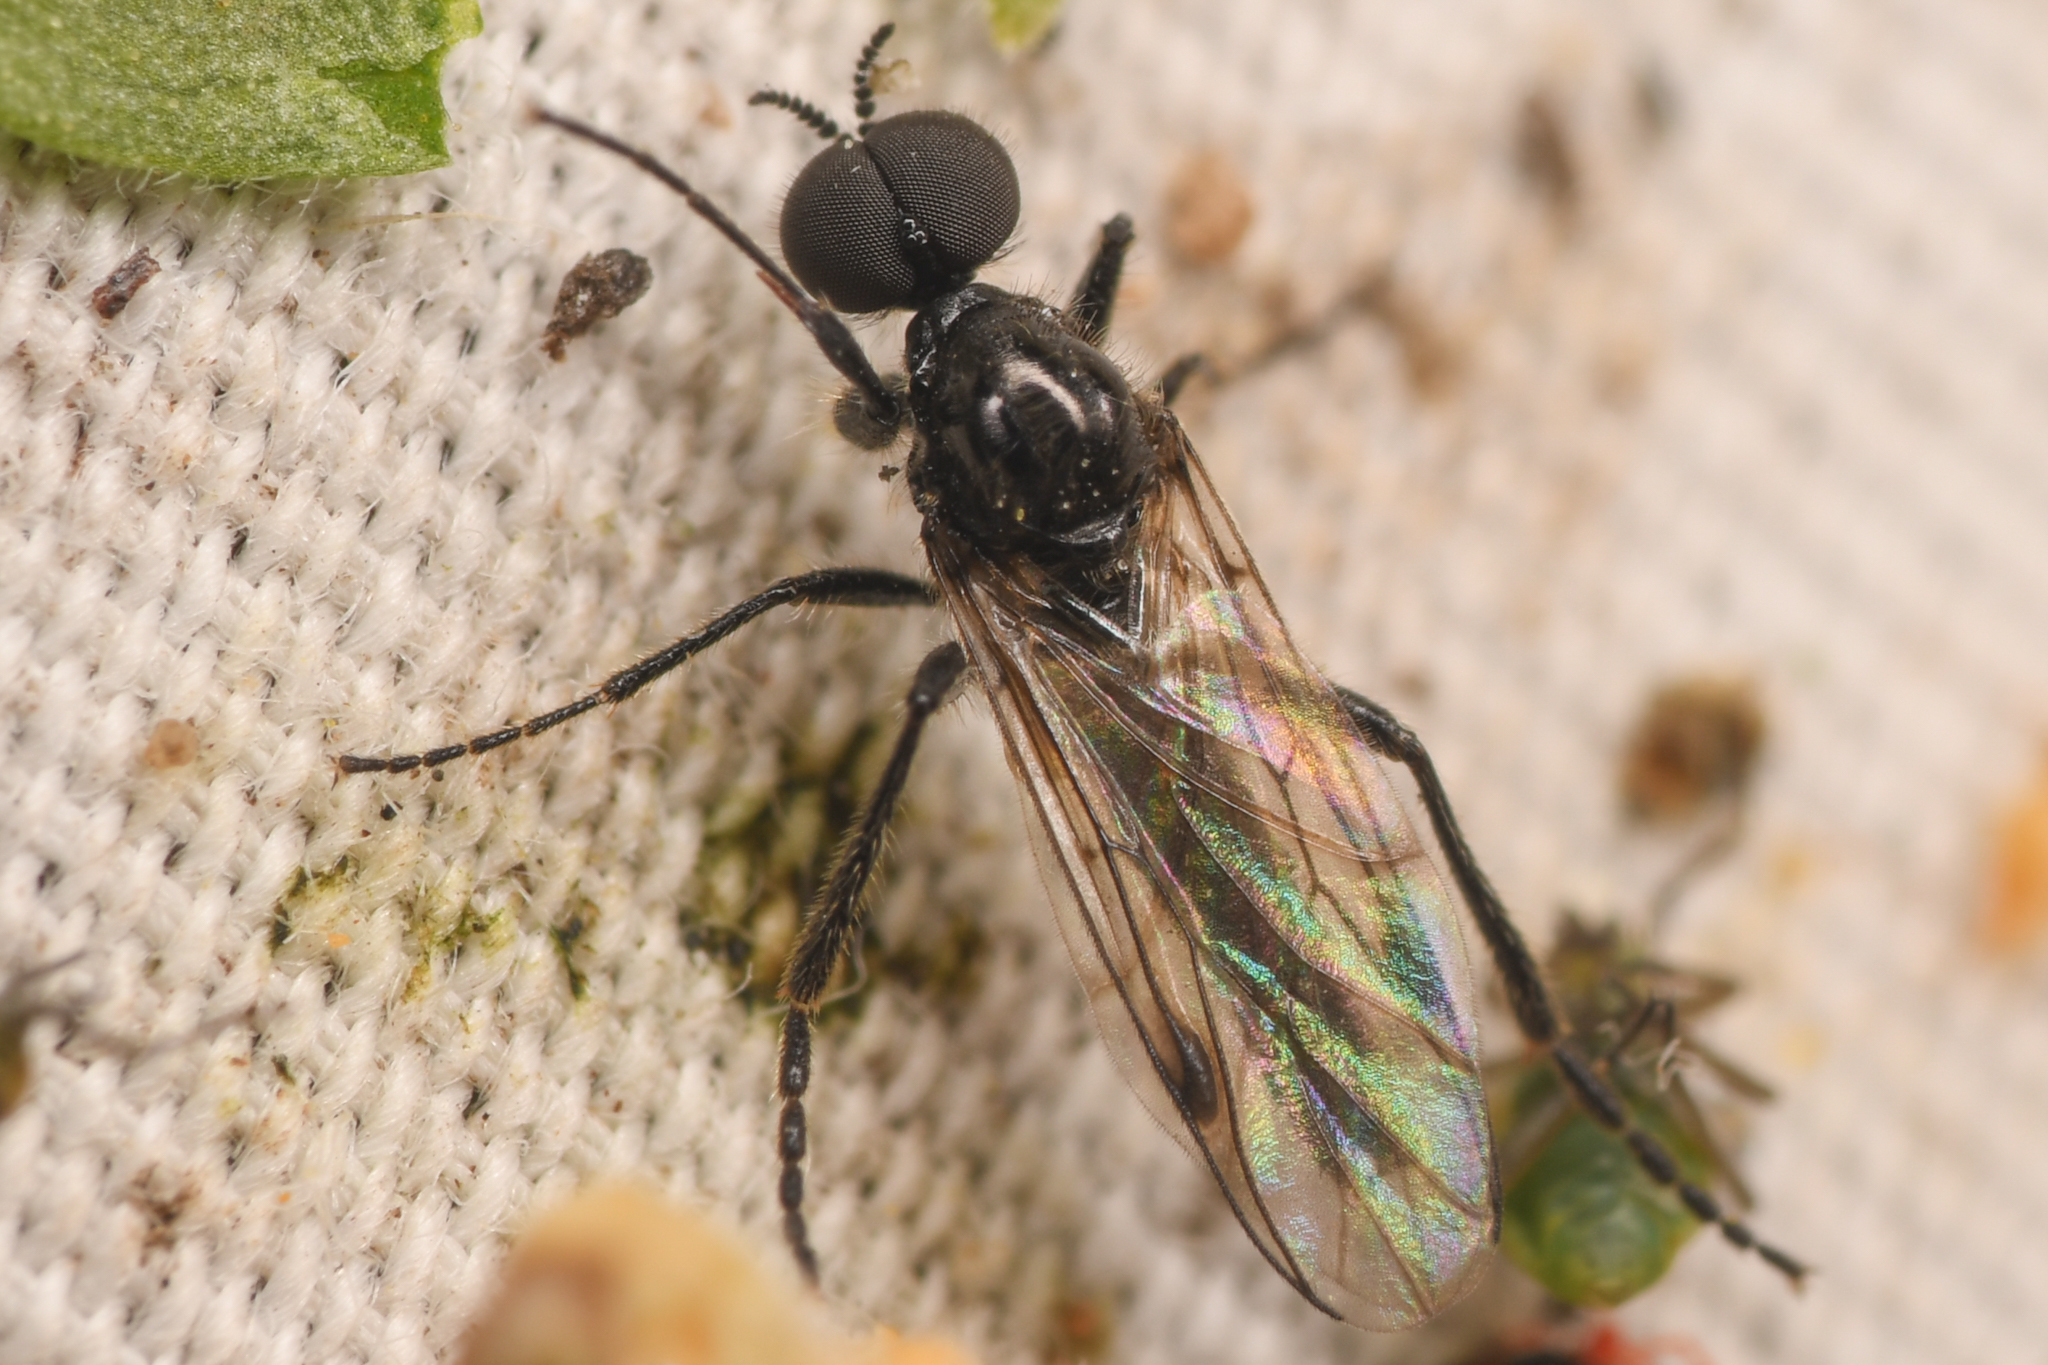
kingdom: Animalia
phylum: Arthropoda
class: Insecta
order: Diptera
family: Bibionidae
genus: Bibiodes
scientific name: Bibiodes halteralis
